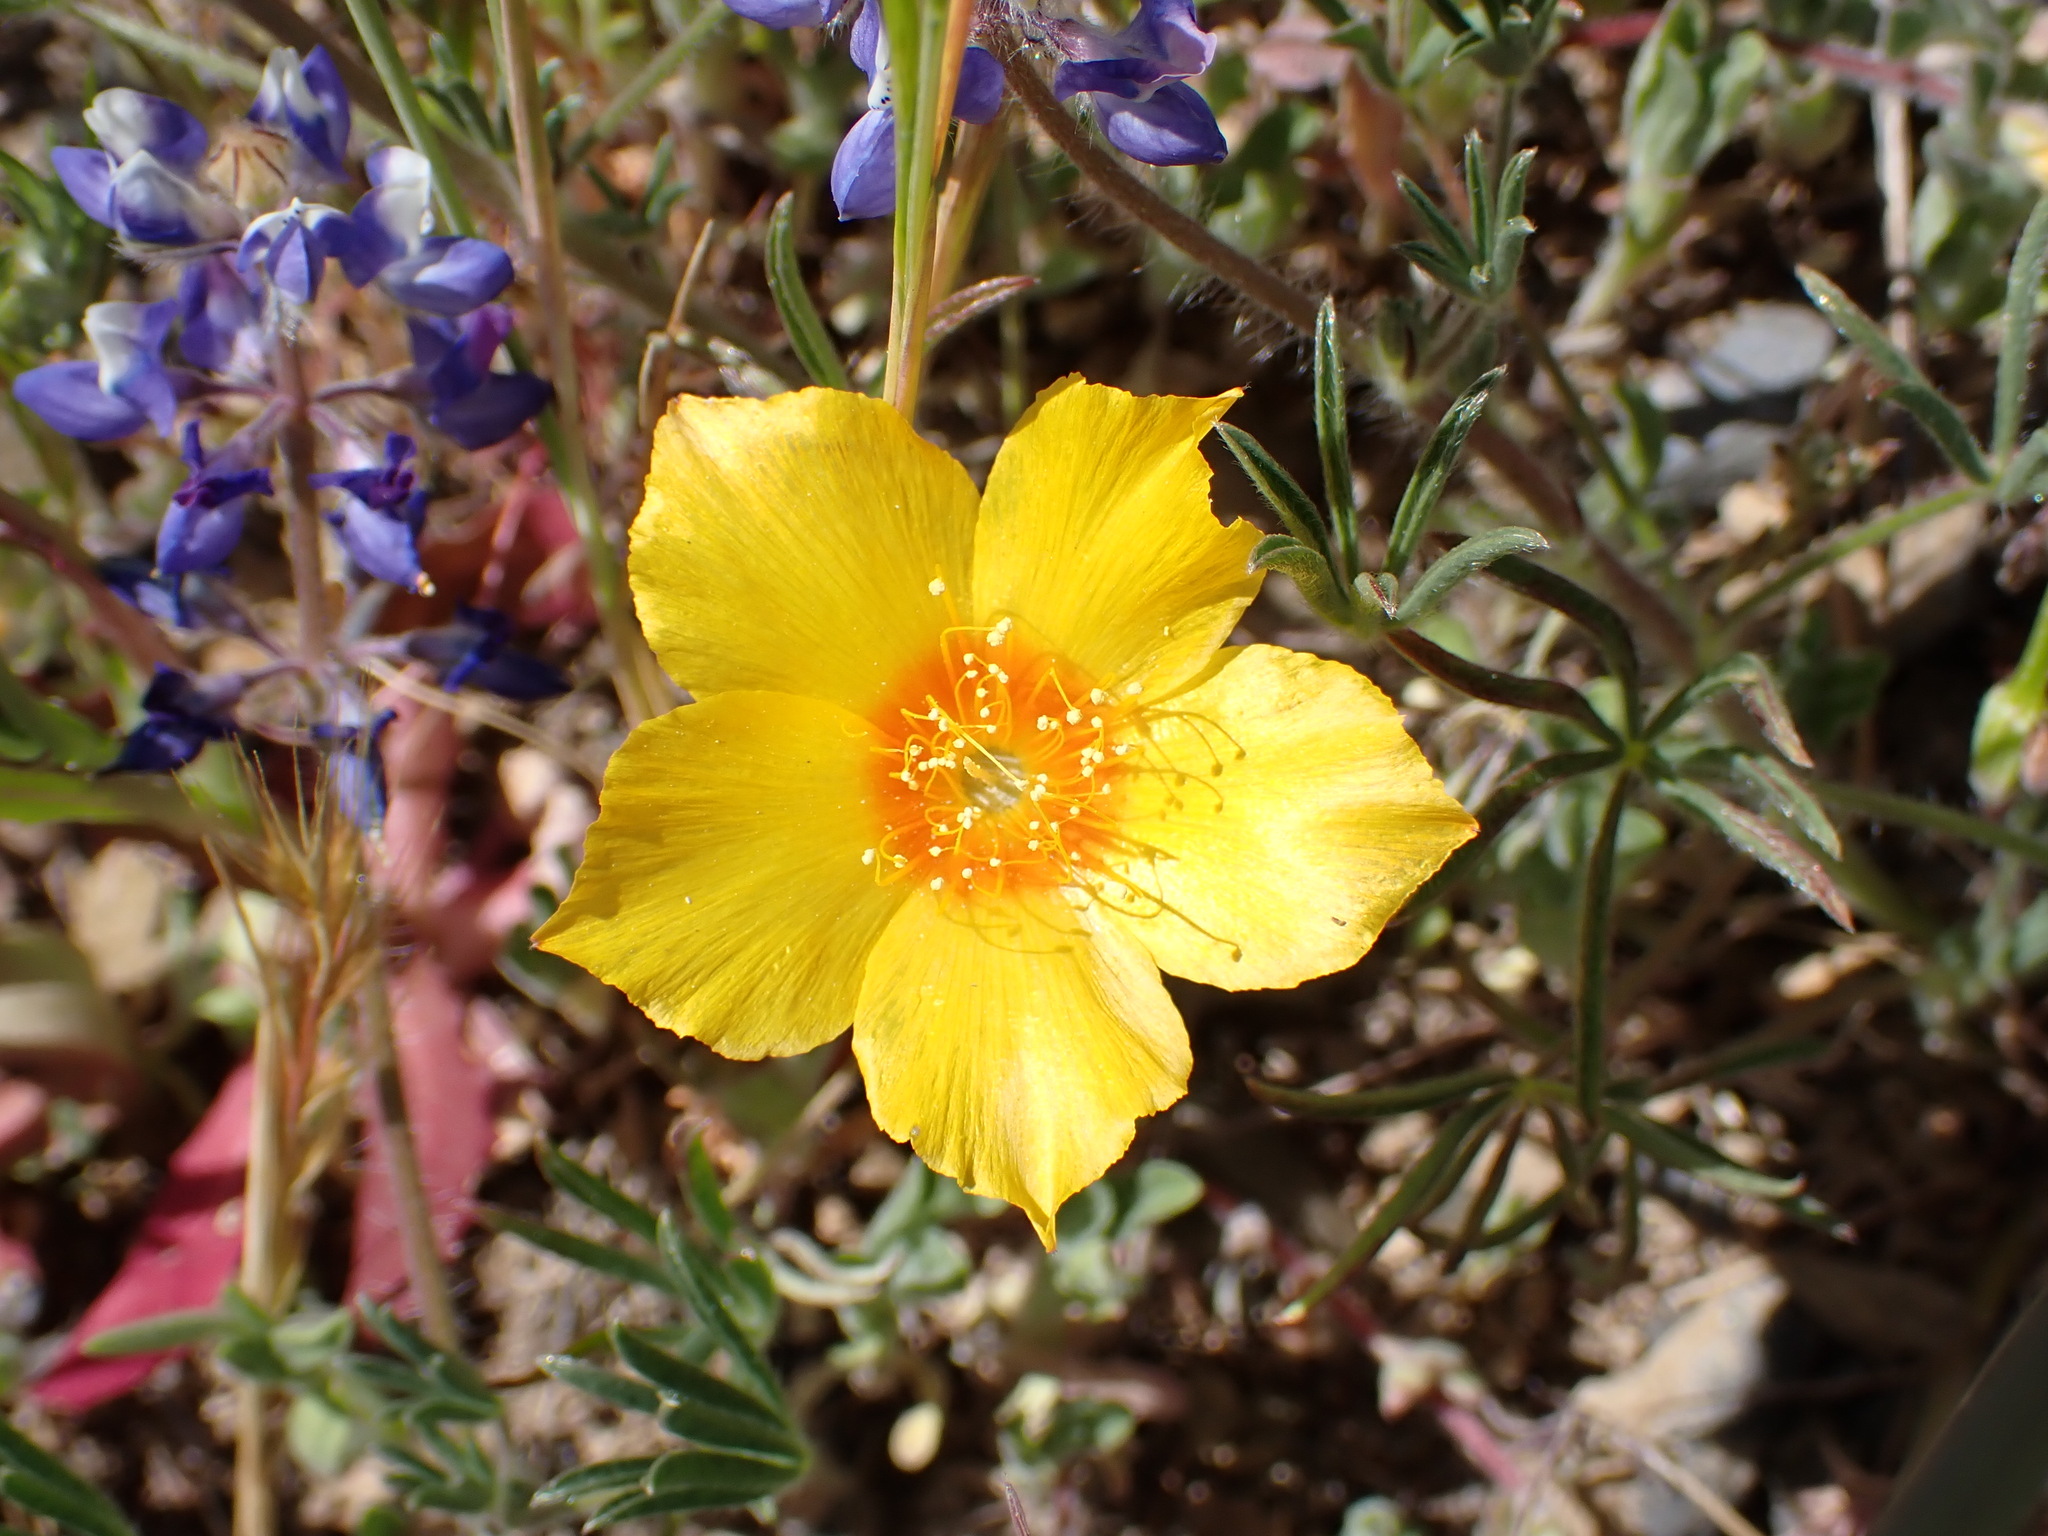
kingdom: Plantae
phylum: Tracheophyta
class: Magnoliopsida
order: Cornales
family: Loasaceae
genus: Mentzelia
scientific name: Mentzelia lindleyi
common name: Golden bartonia
